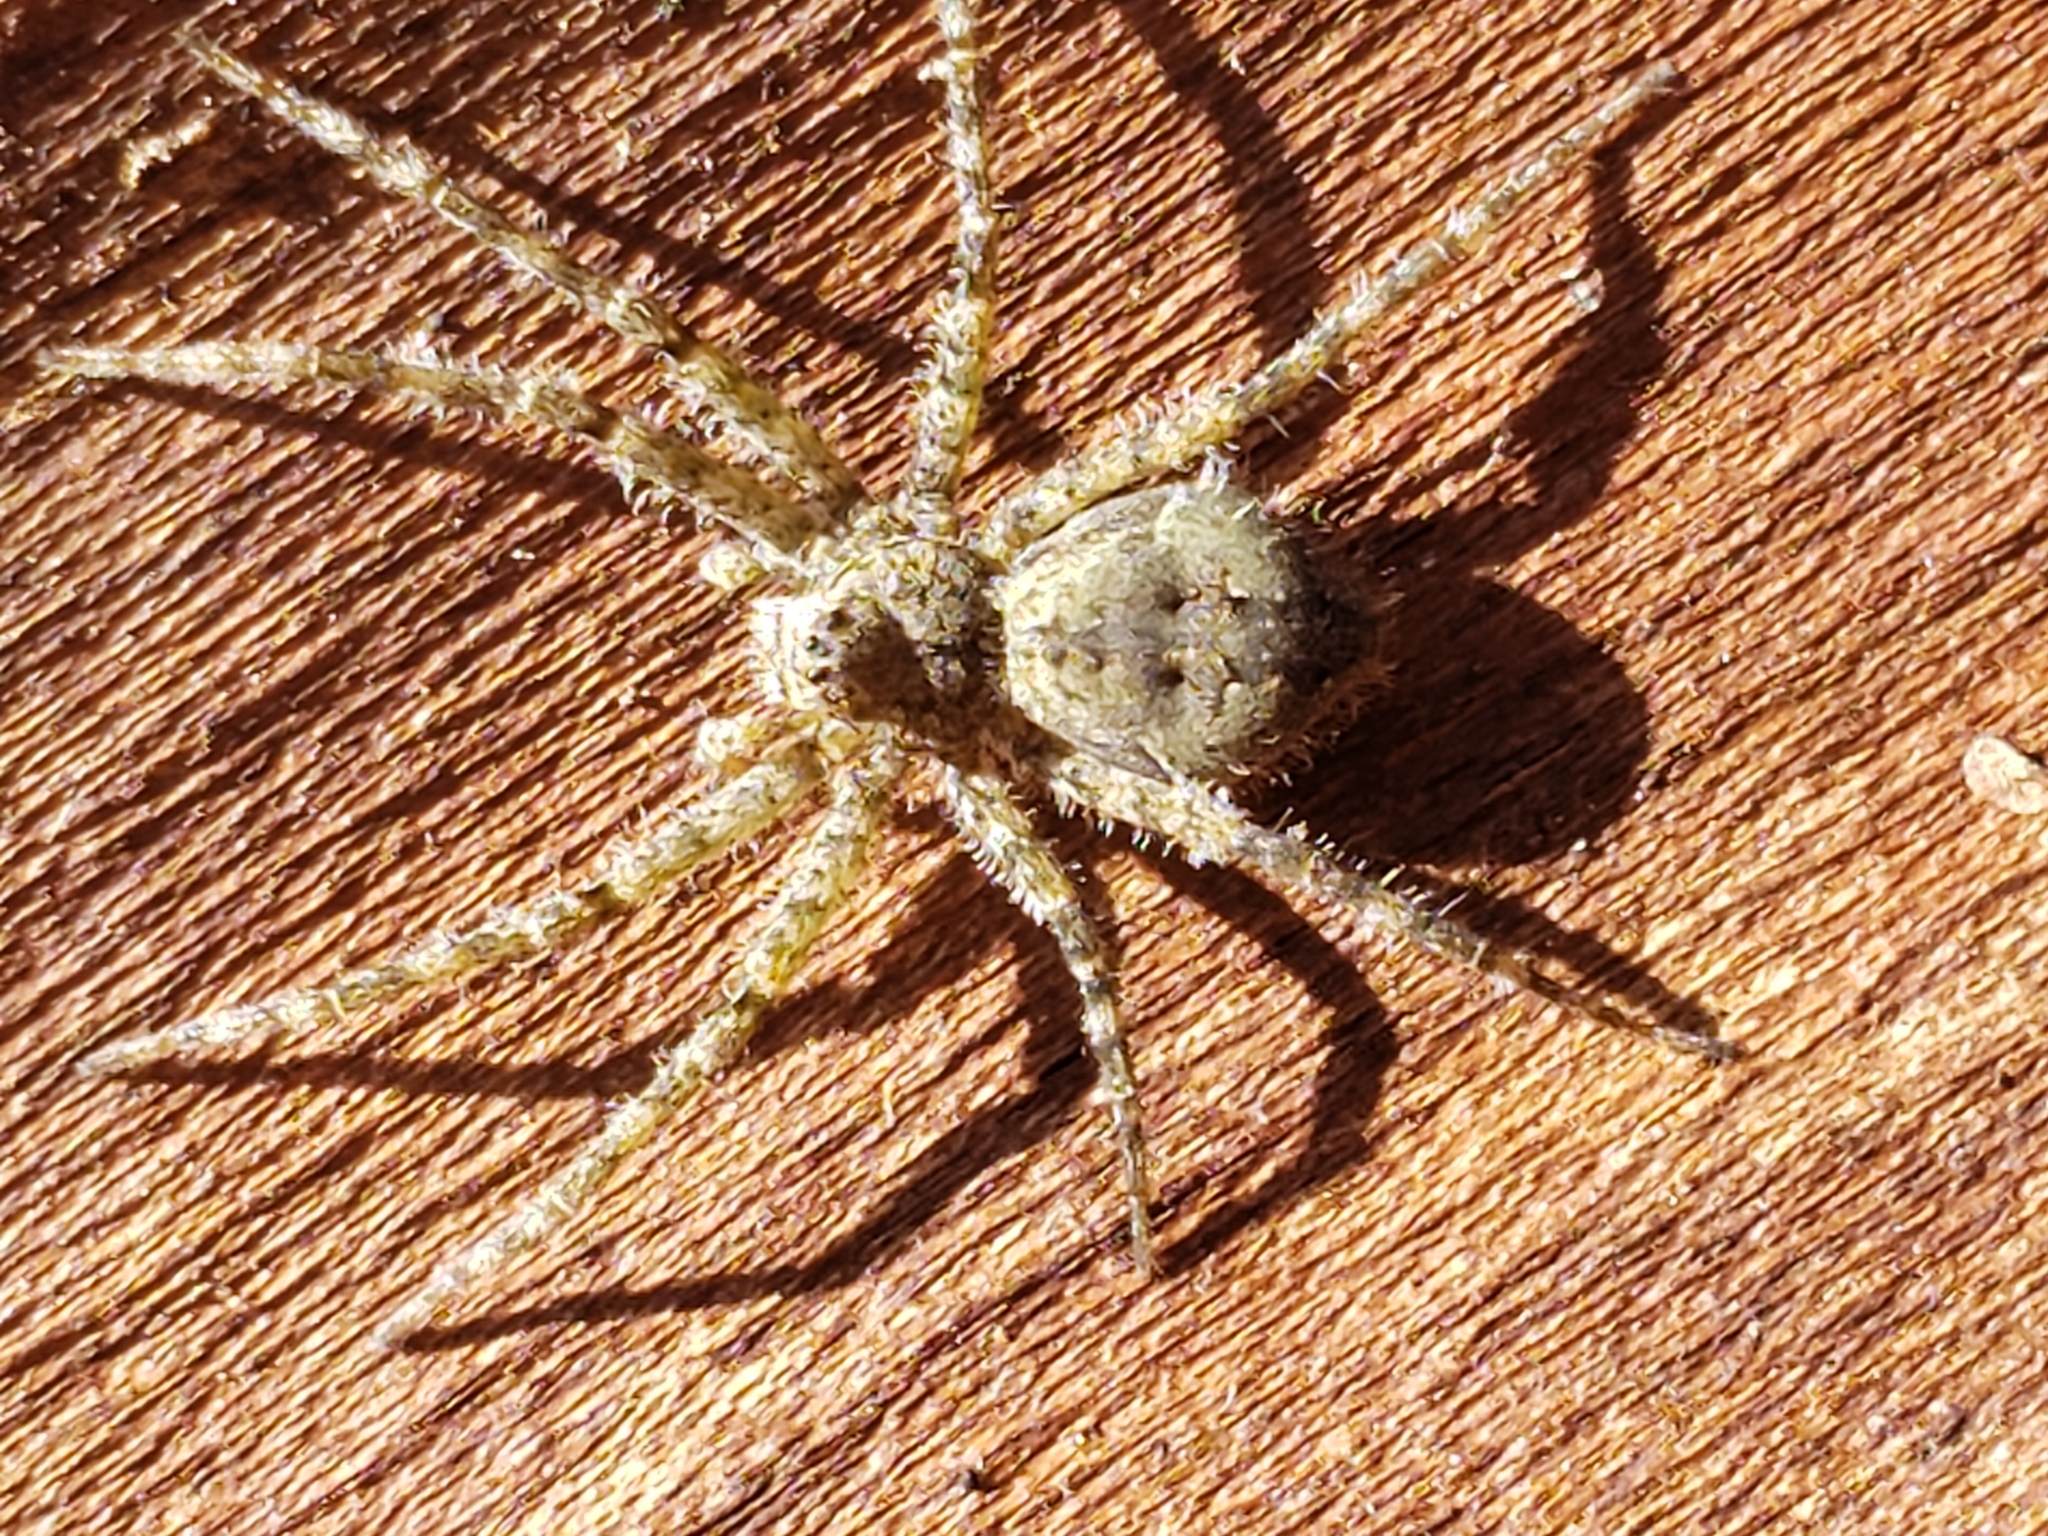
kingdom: Animalia
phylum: Arthropoda
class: Arachnida
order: Araneae
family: Pisauridae
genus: Dolomedes
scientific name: Dolomedes albineus
